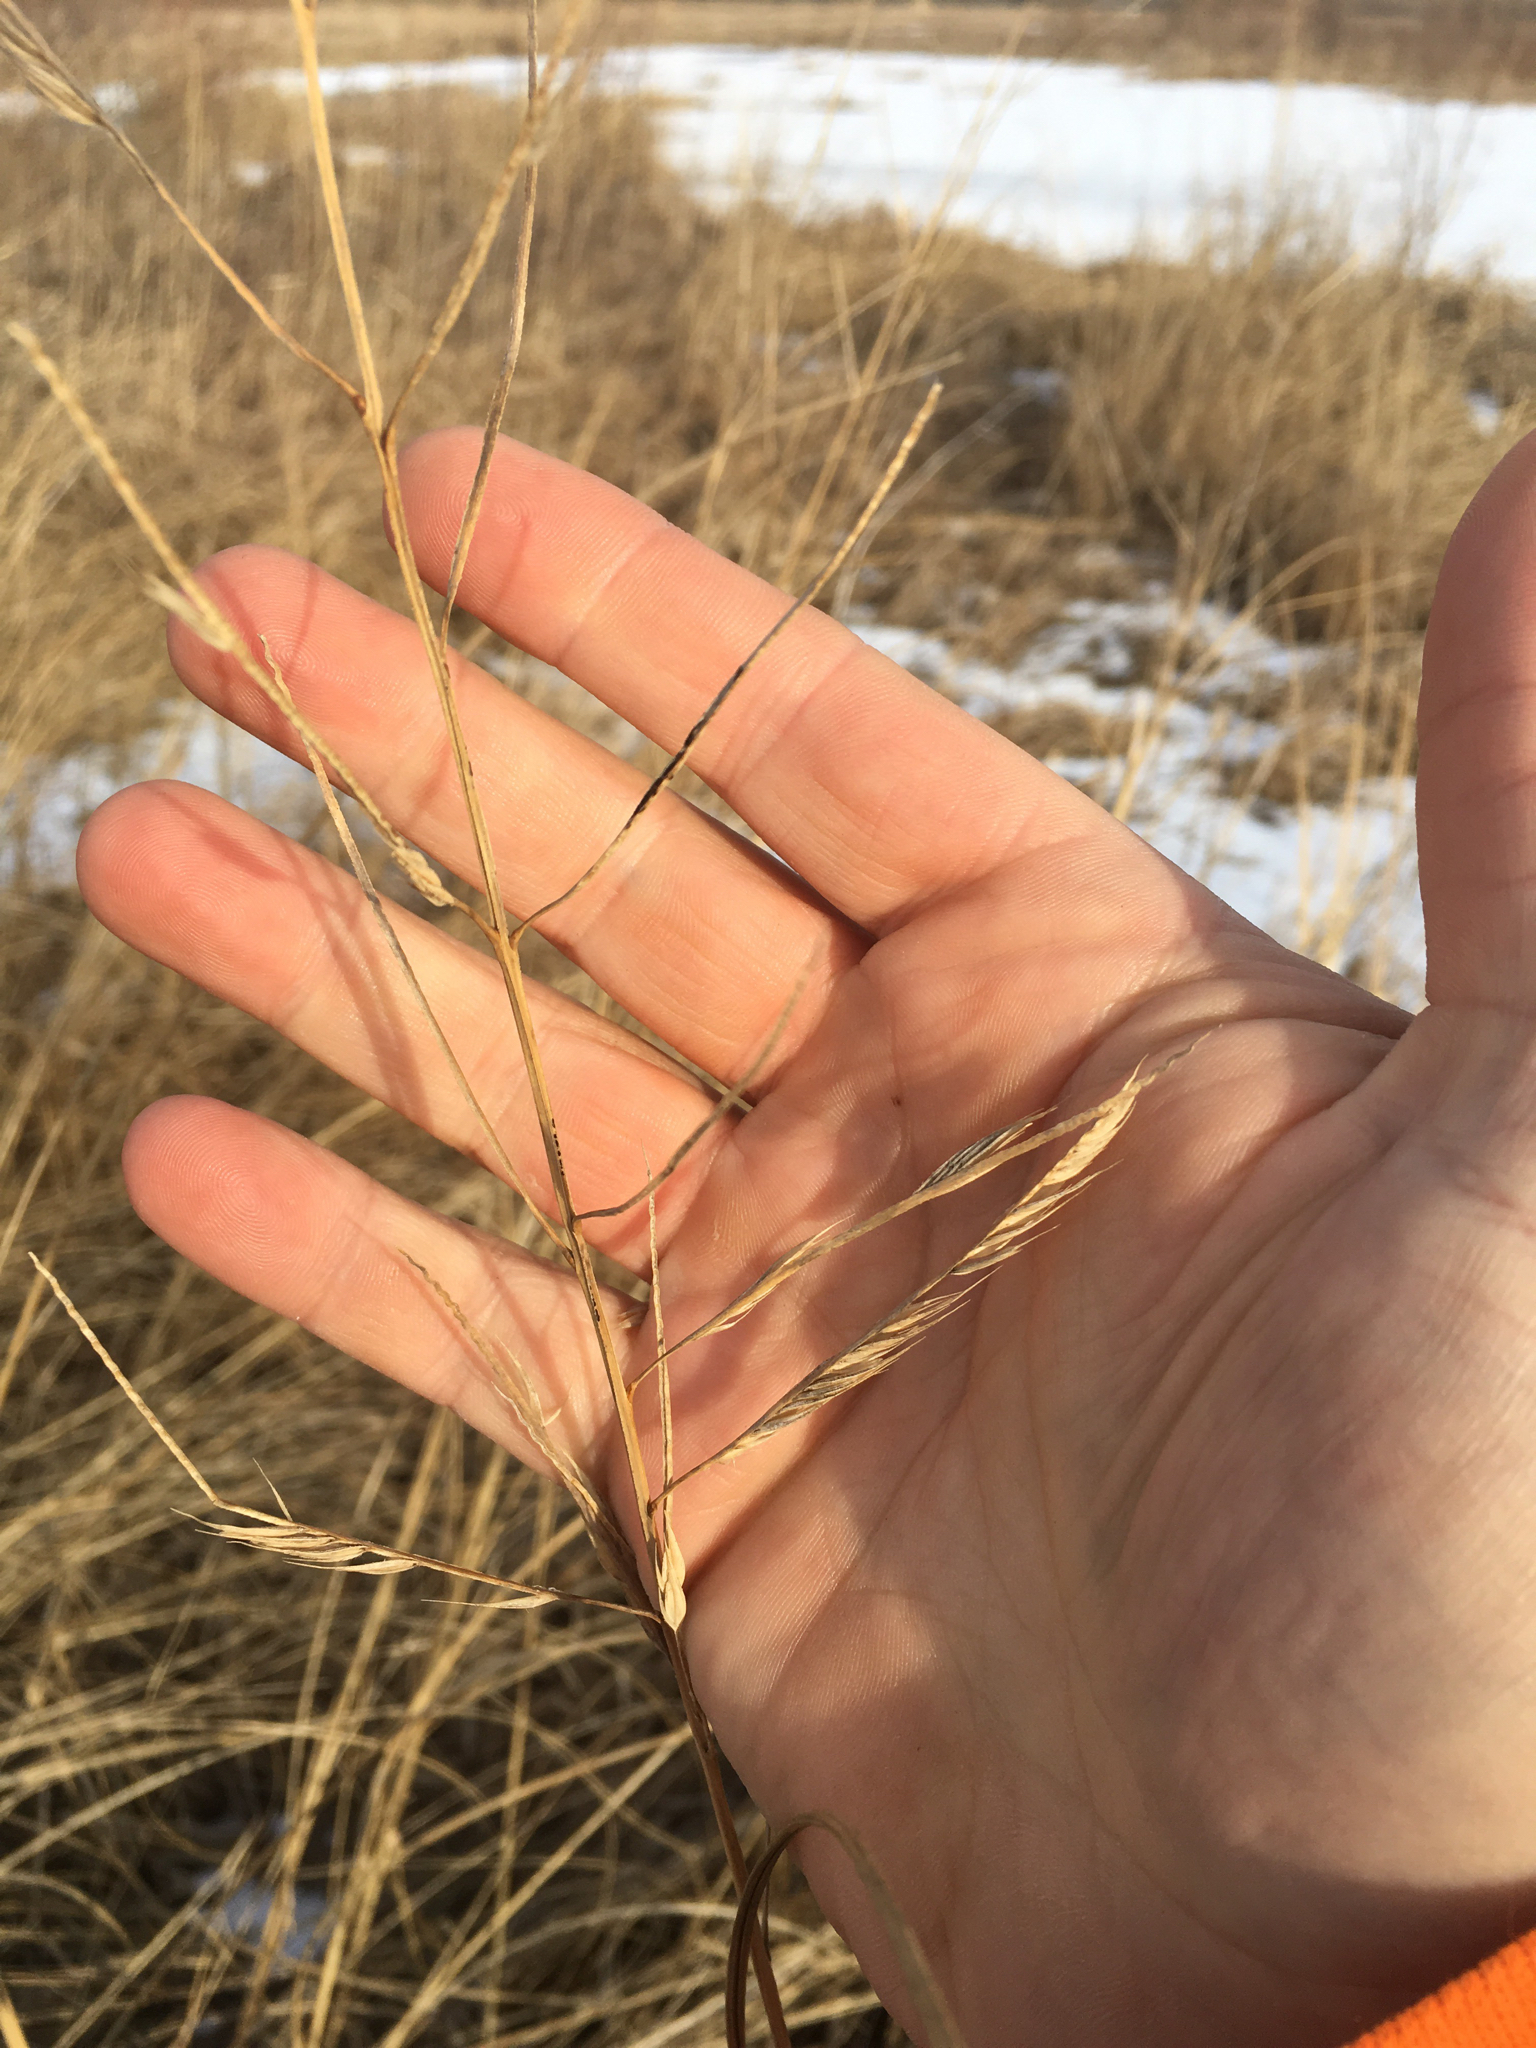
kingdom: Plantae
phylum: Tracheophyta
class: Liliopsida
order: Poales
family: Poaceae
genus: Sporobolus
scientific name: Sporobolus michauxianus
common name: Freshwater cordgrass
